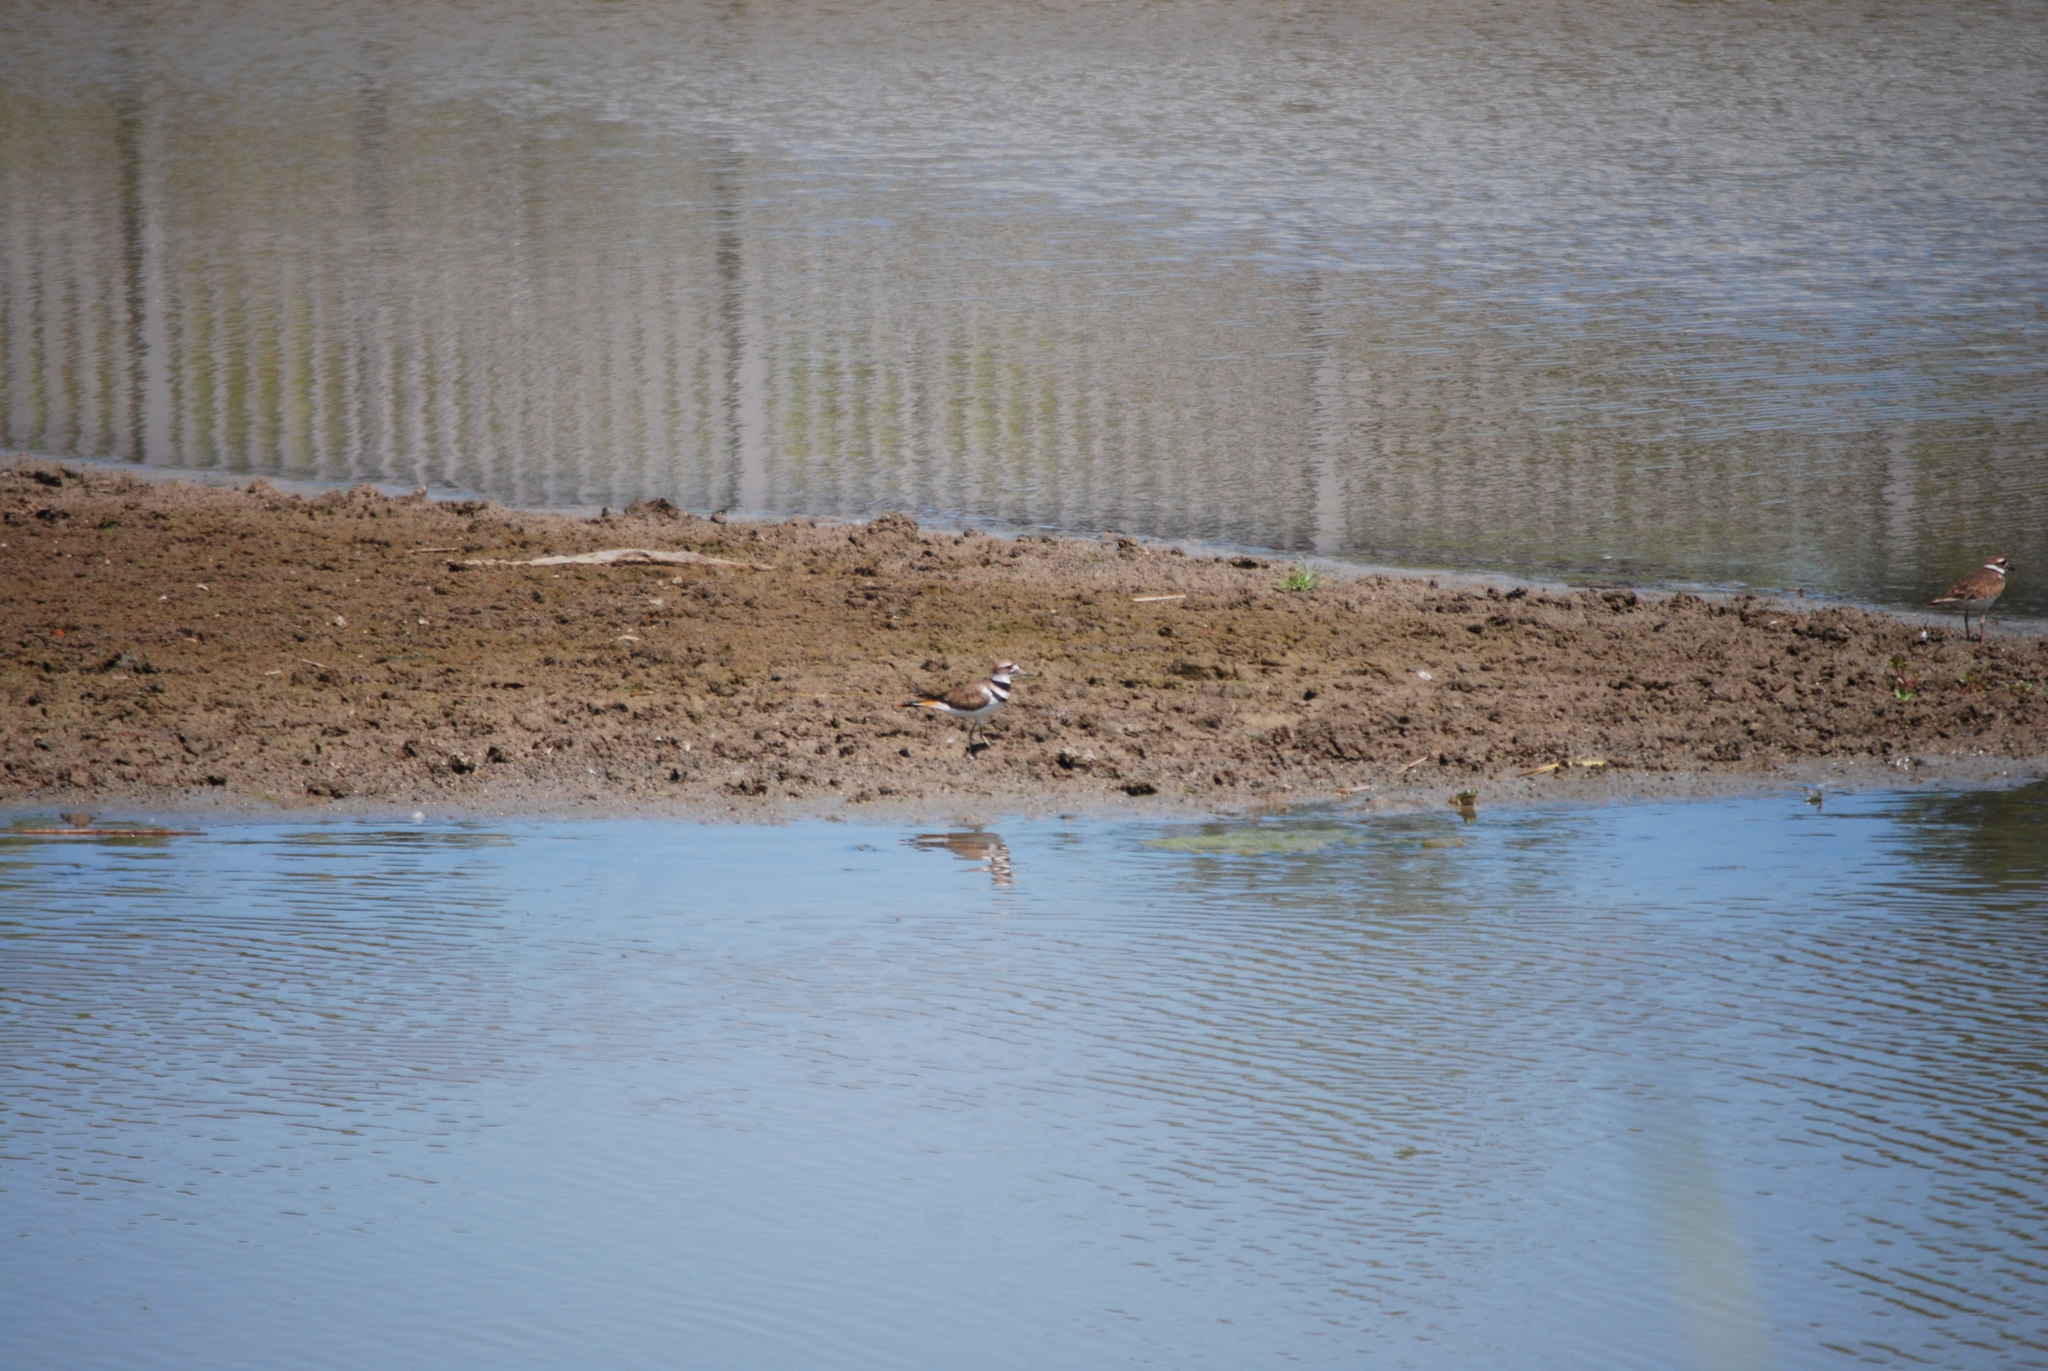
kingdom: Animalia
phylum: Chordata
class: Aves
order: Charadriiformes
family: Charadriidae
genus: Charadrius
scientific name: Charadrius vociferus
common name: Killdeer
